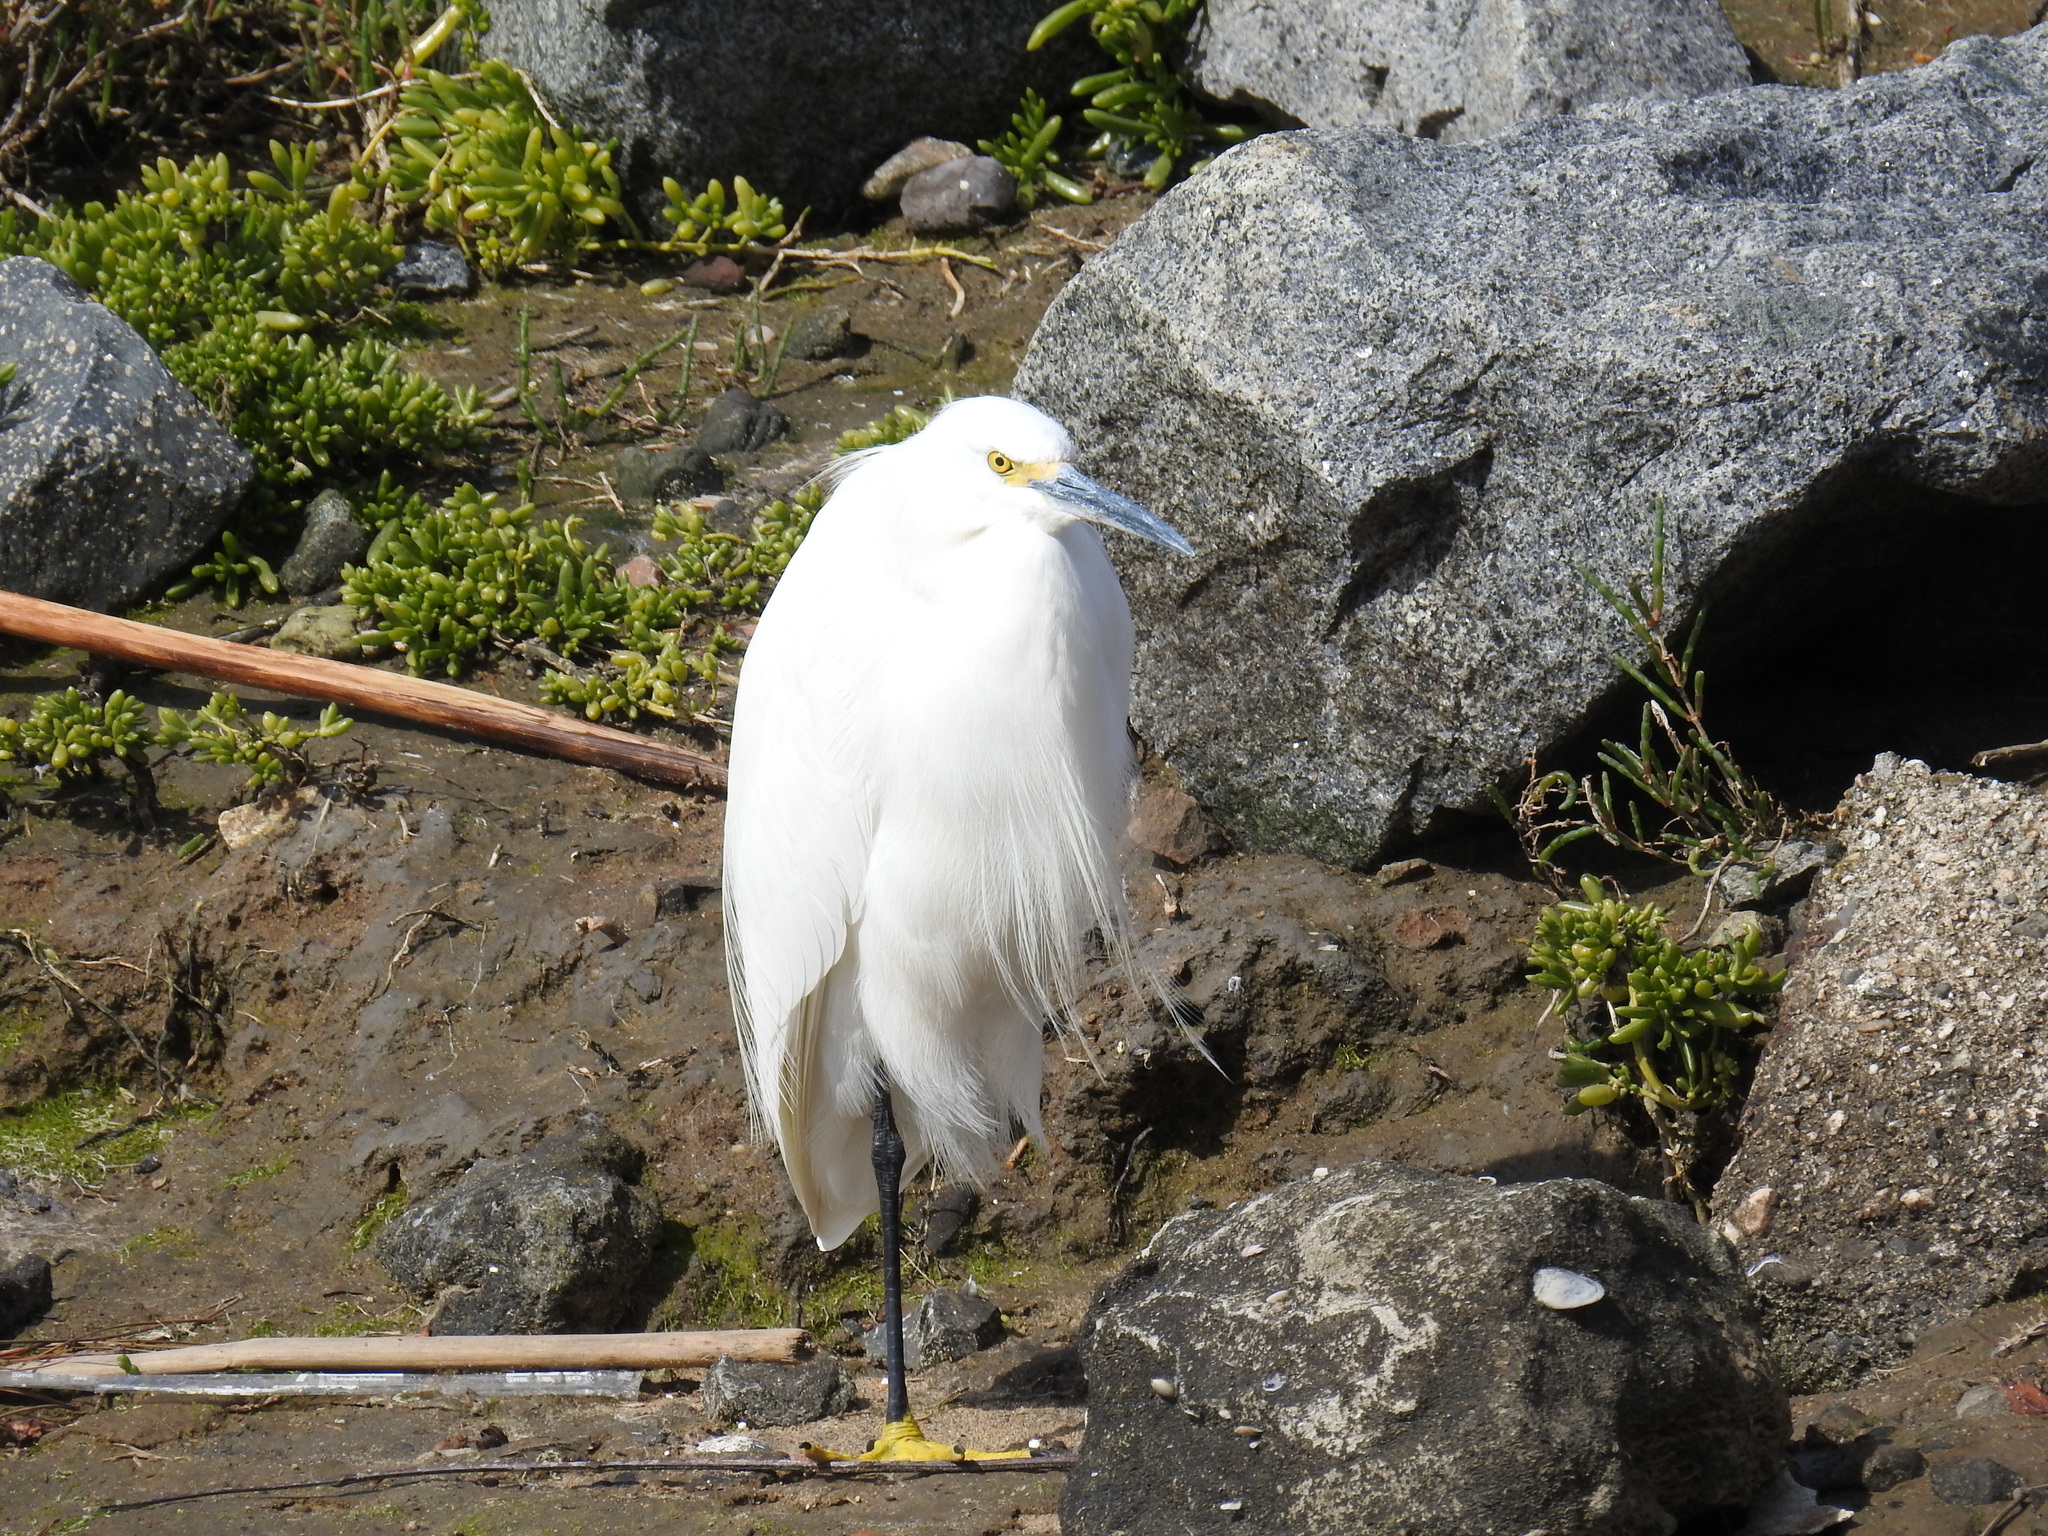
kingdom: Animalia
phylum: Chordata
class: Aves
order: Pelecaniformes
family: Ardeidae
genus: Egretta
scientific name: Egretta thula
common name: Snowy egret
